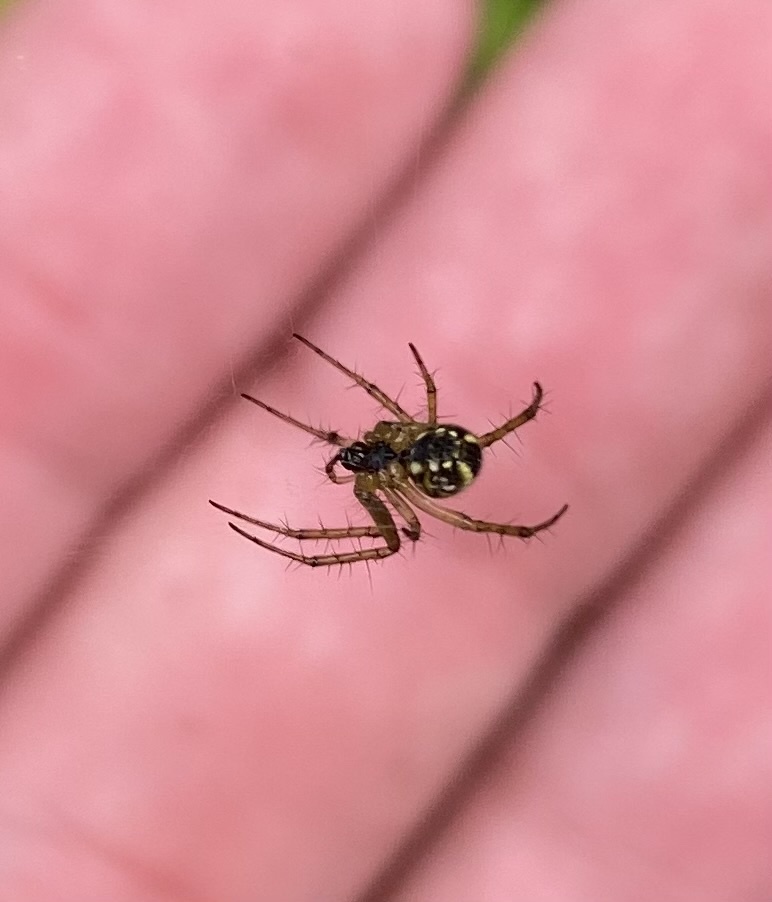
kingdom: Animalia
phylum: Arthropoda
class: Arachnida
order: Araneae
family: Araneidae
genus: Mangora
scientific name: Mangora acalypha
